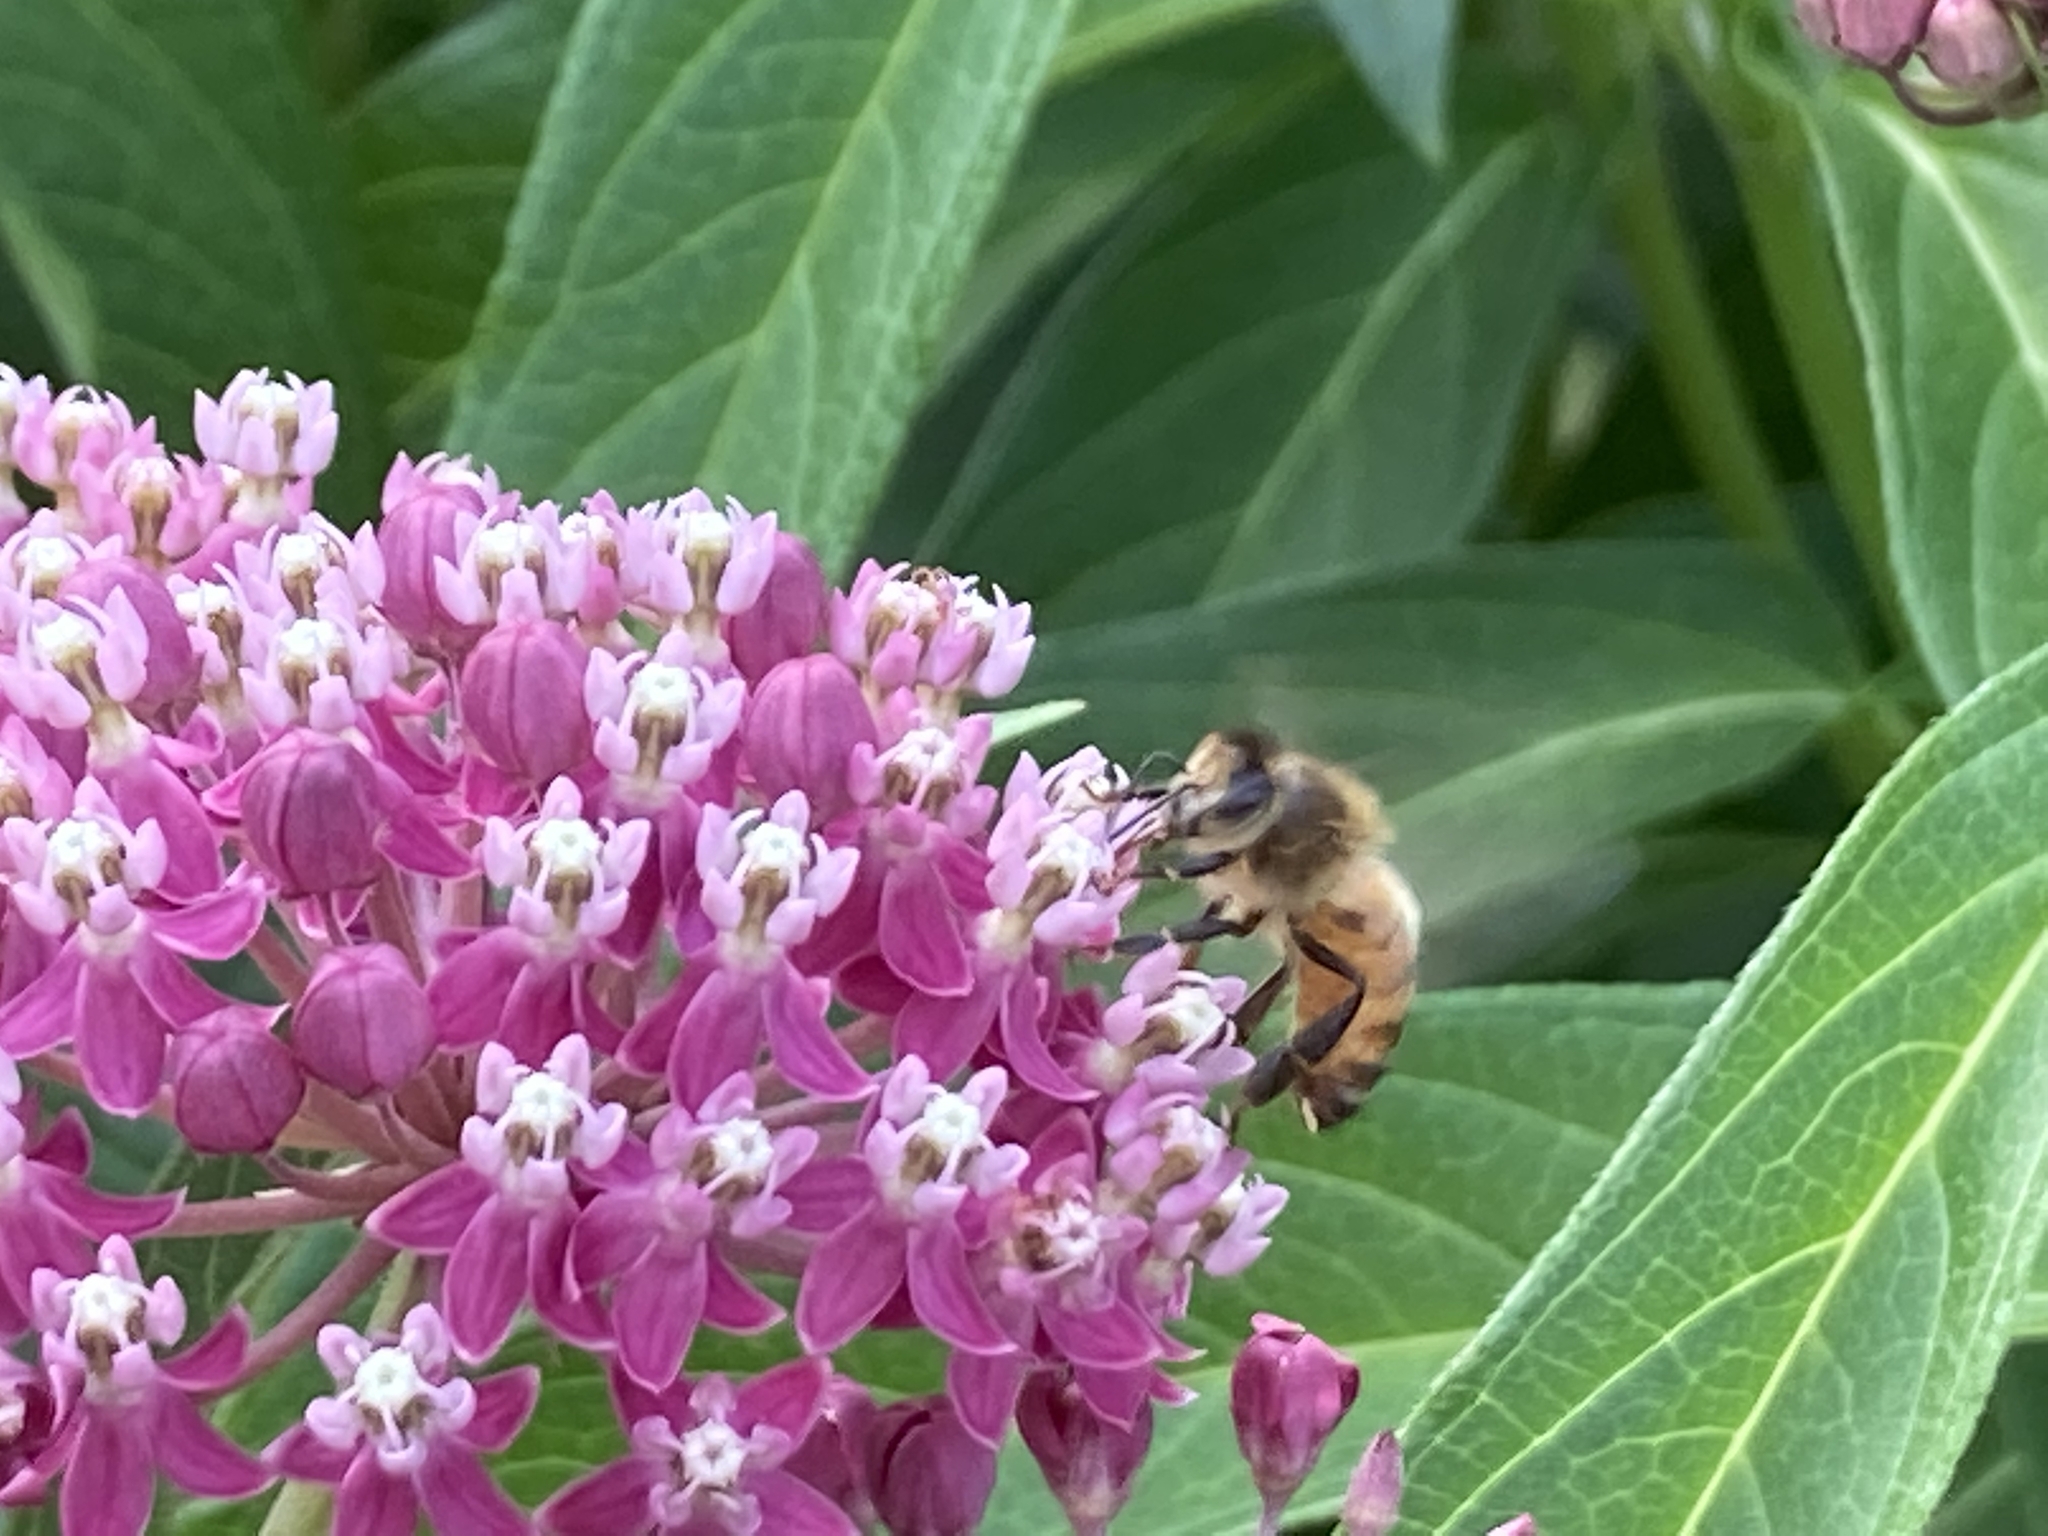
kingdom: Animalia
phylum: Arthropoda
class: Insecta
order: Hymenoptera
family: Apidae
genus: Apis
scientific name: Apis mellifera
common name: Honey bee
